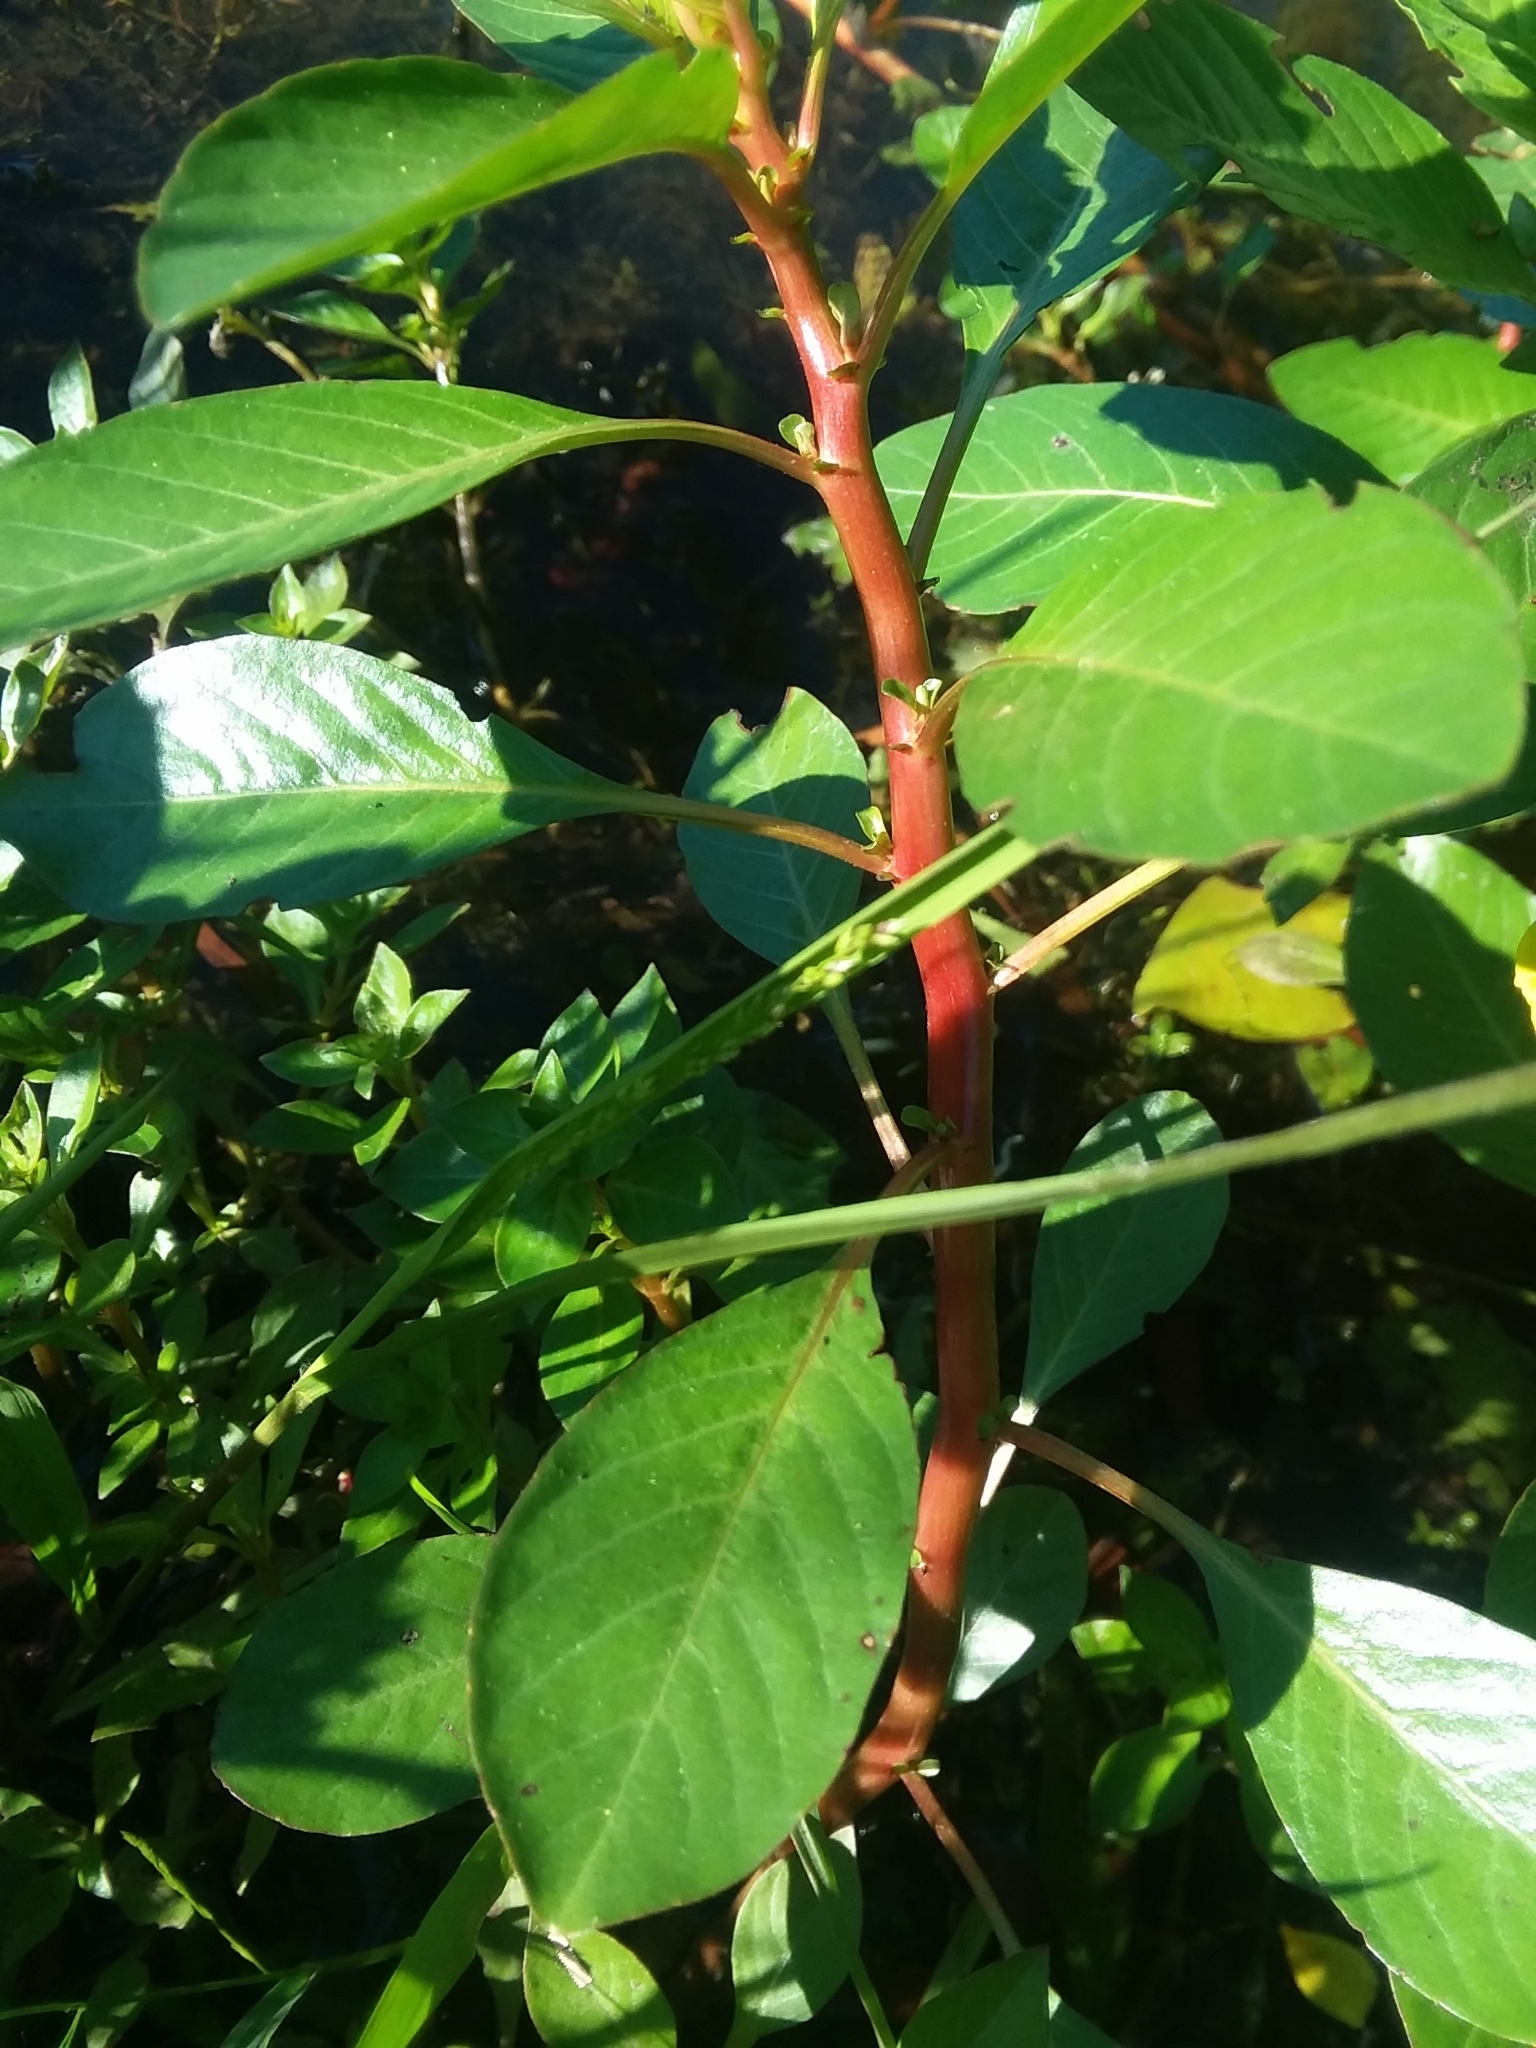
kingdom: Plantae
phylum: Tracheophyta
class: Magnoliopsida
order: Myrtales
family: Onagraceae
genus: Ludwigia
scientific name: Ludwigia peploides
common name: Floating primrose-willow
